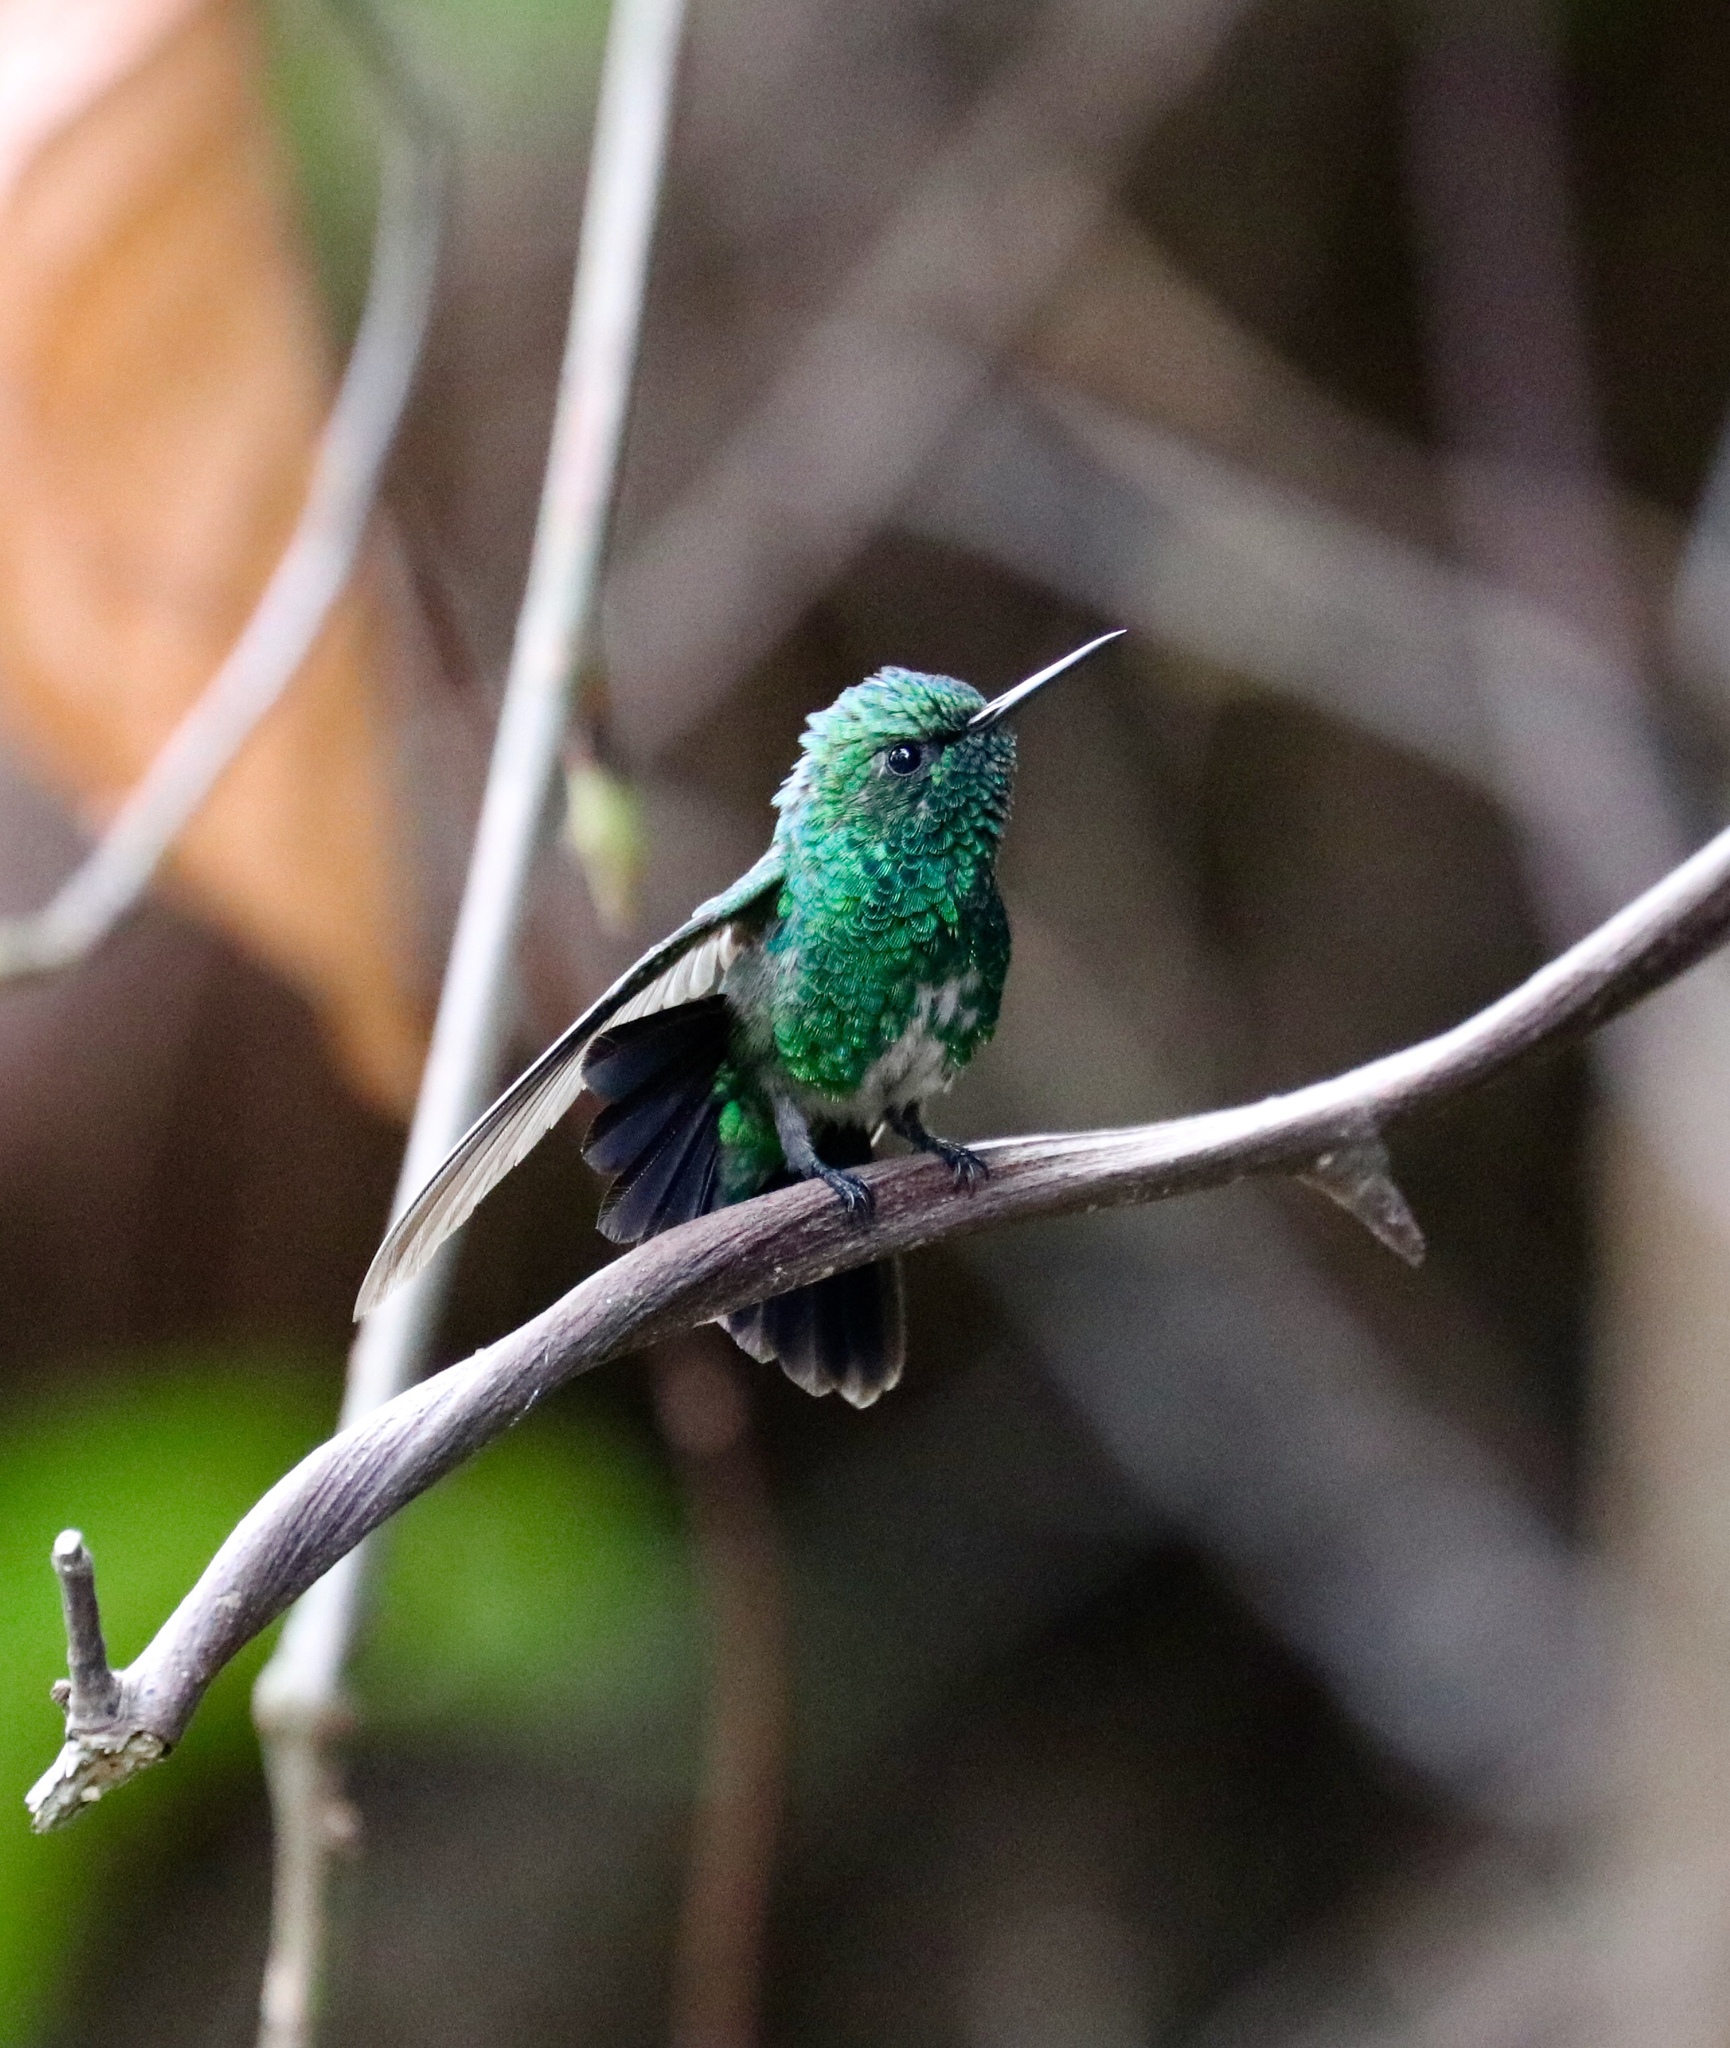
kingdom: Animalia
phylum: Chordata
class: Aves
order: Apodiformes
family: Trochilidae
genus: Chlorostilbon
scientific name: Chlorostilbon assimilis
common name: Garden emerald
